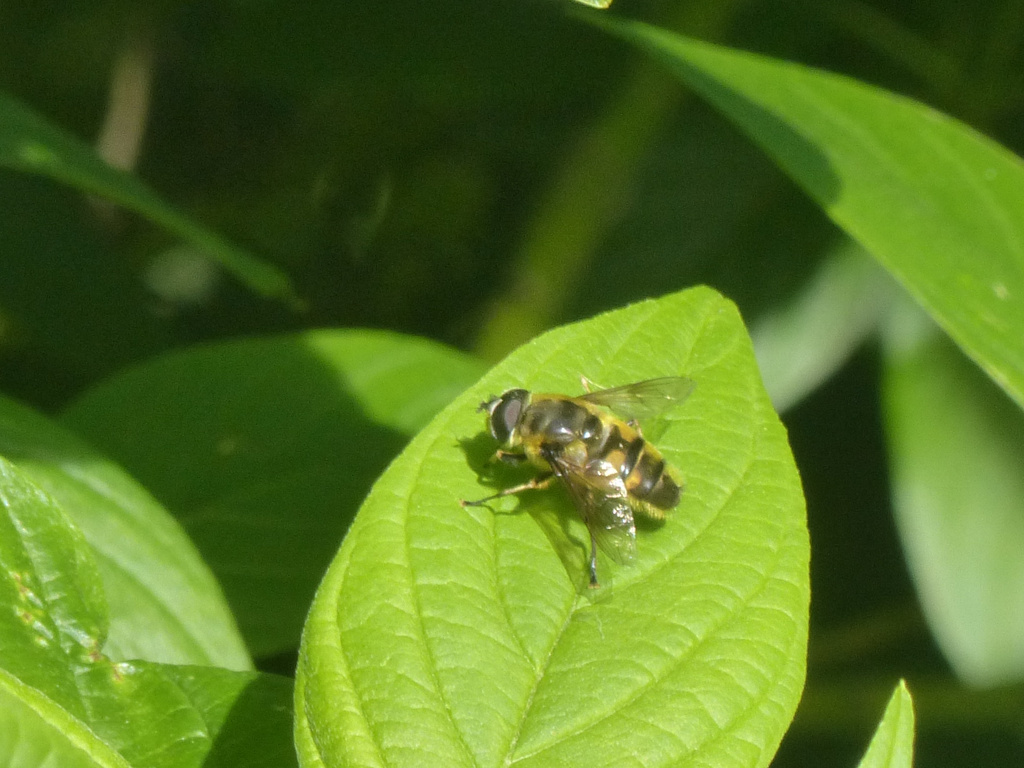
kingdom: Animalia
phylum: Arthropoda
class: Insecta
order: Diptera
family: Syrphidae
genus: Myathropa
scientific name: Myathropa florea
